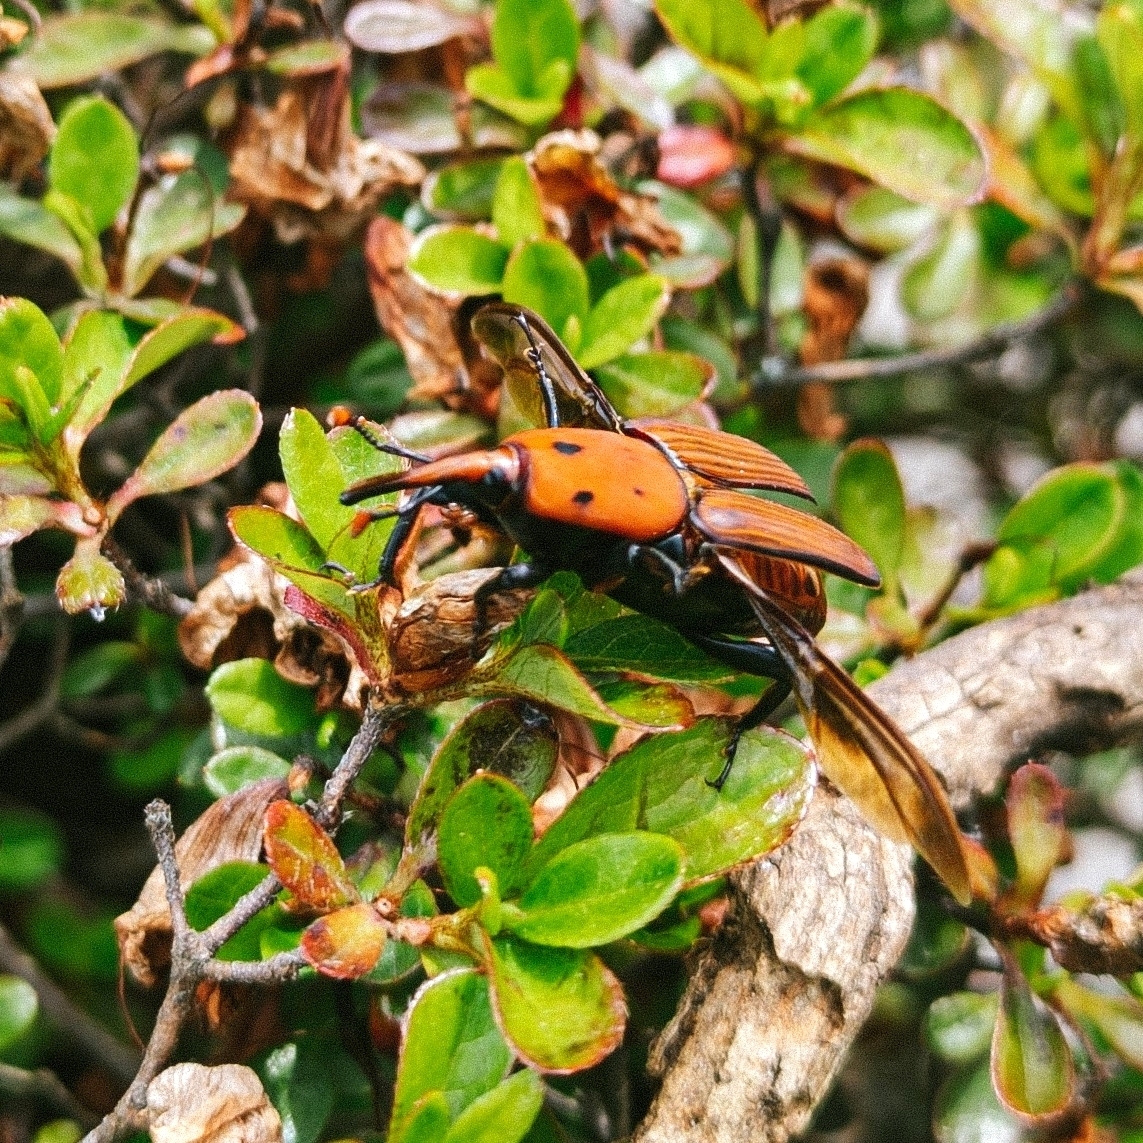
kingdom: Animalia
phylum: Arthropoda
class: Insecta
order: Coleoptera
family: Dryophthoridae
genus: Rhynchophorus
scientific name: Rhynchophorus ferrugineus
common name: Red palm weevil
